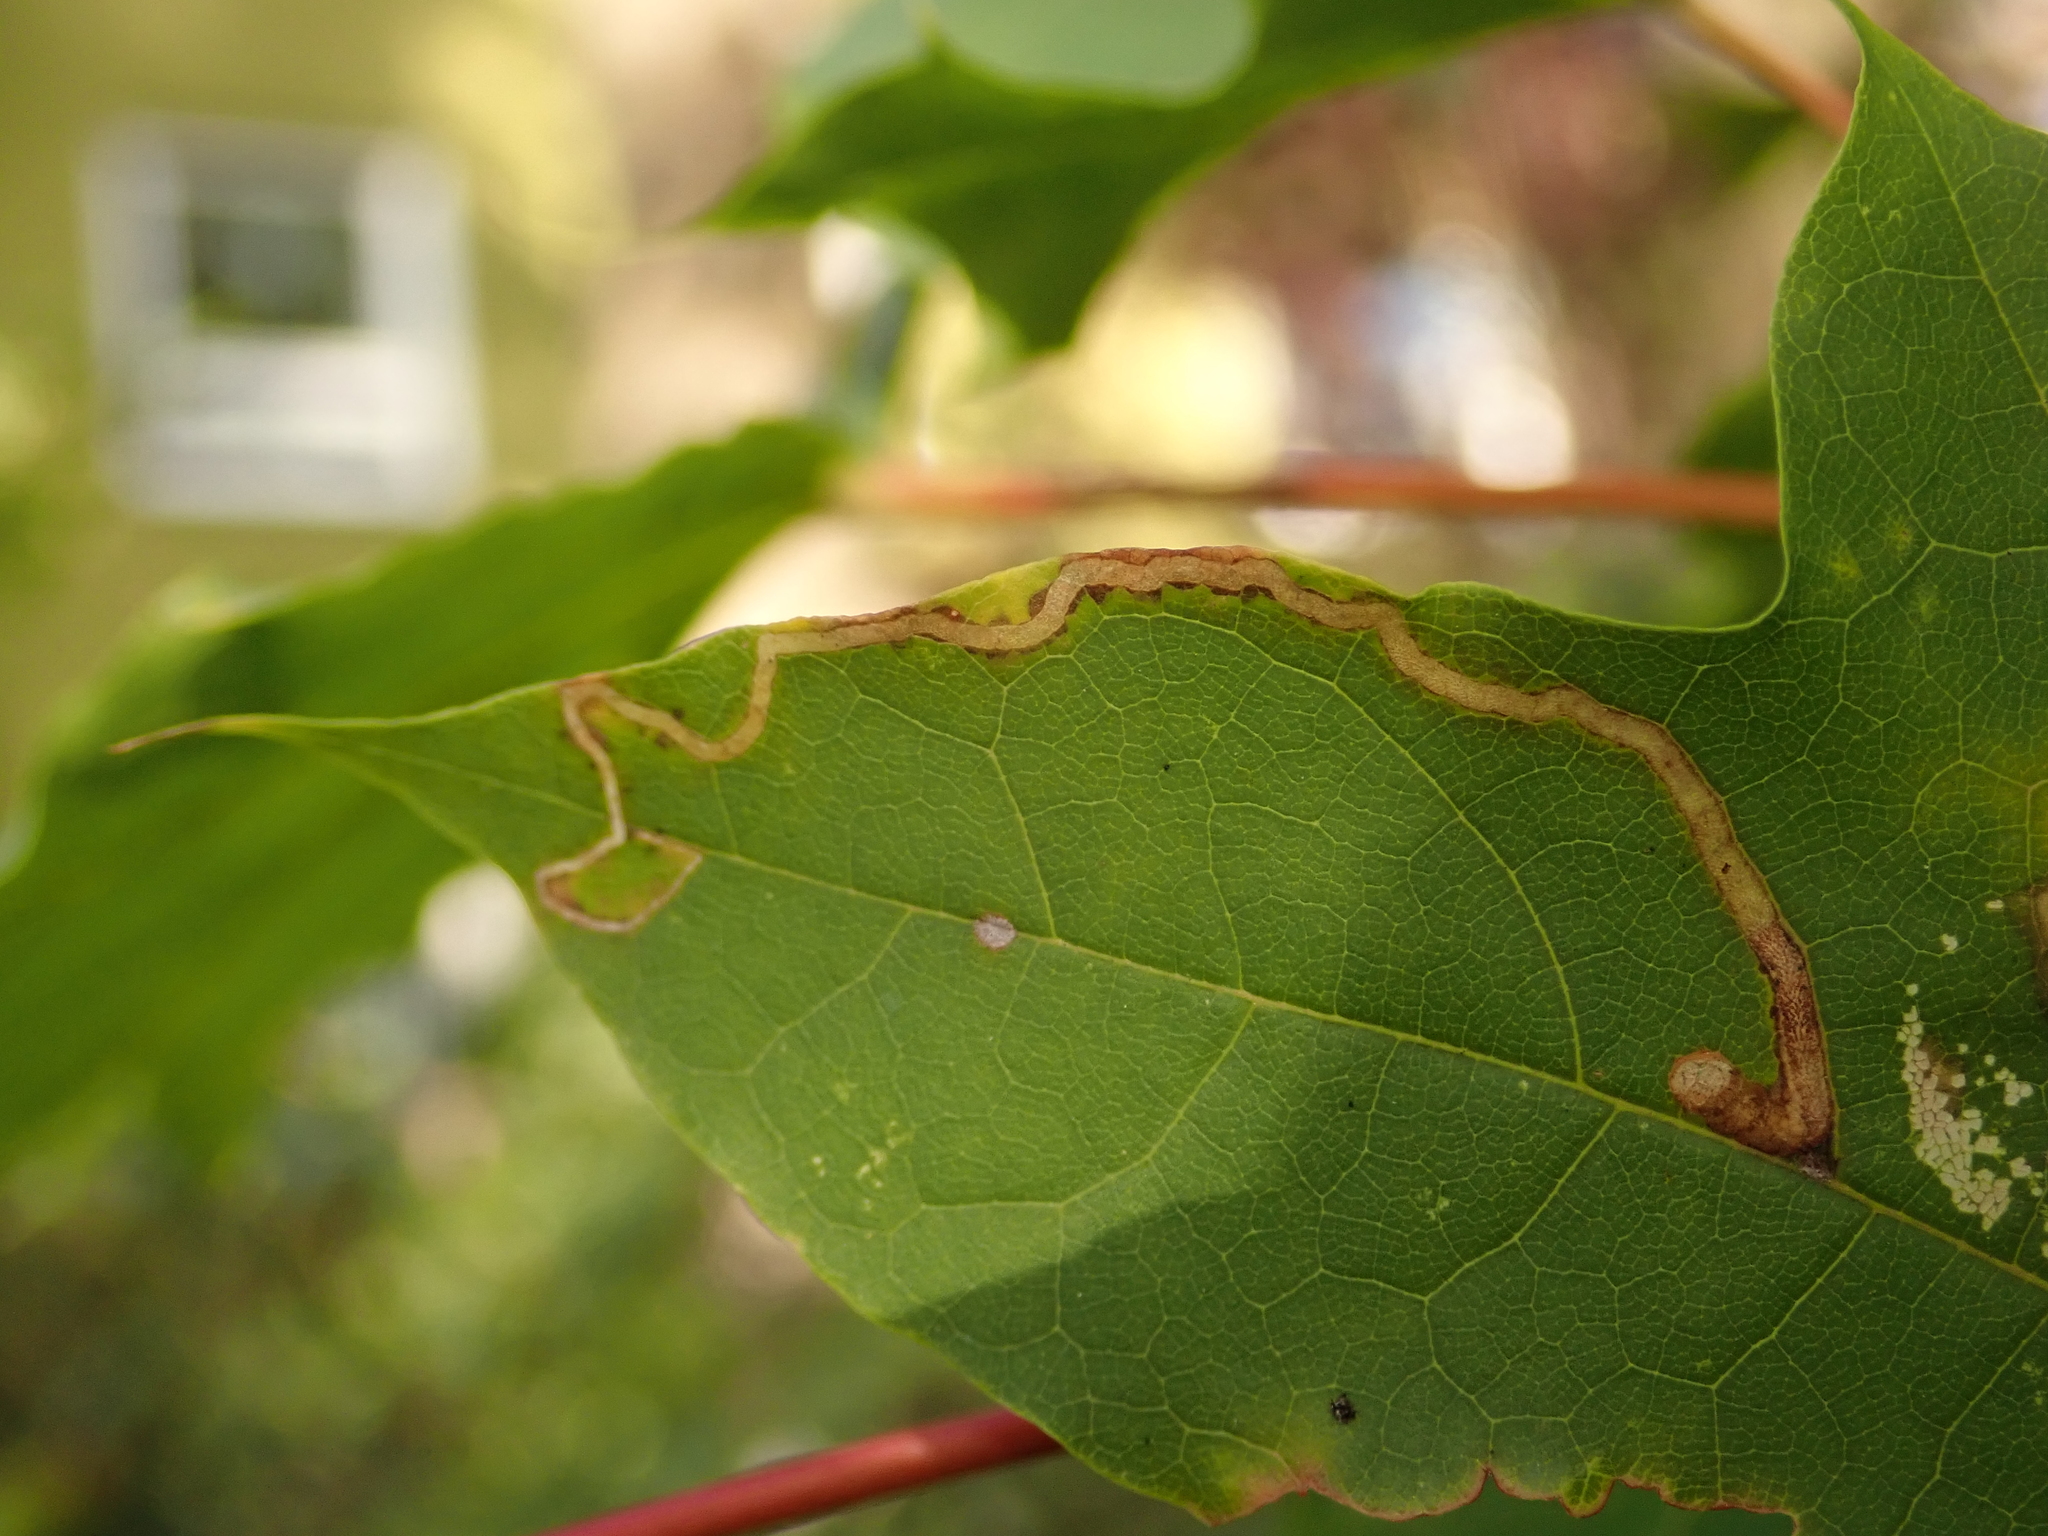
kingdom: Animalia
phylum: Arthropoda
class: Insecta
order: Lepidoptera
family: Nepticulidae
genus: Stigmella
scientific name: Stigmella aceris
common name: Scarce maple pigmy
